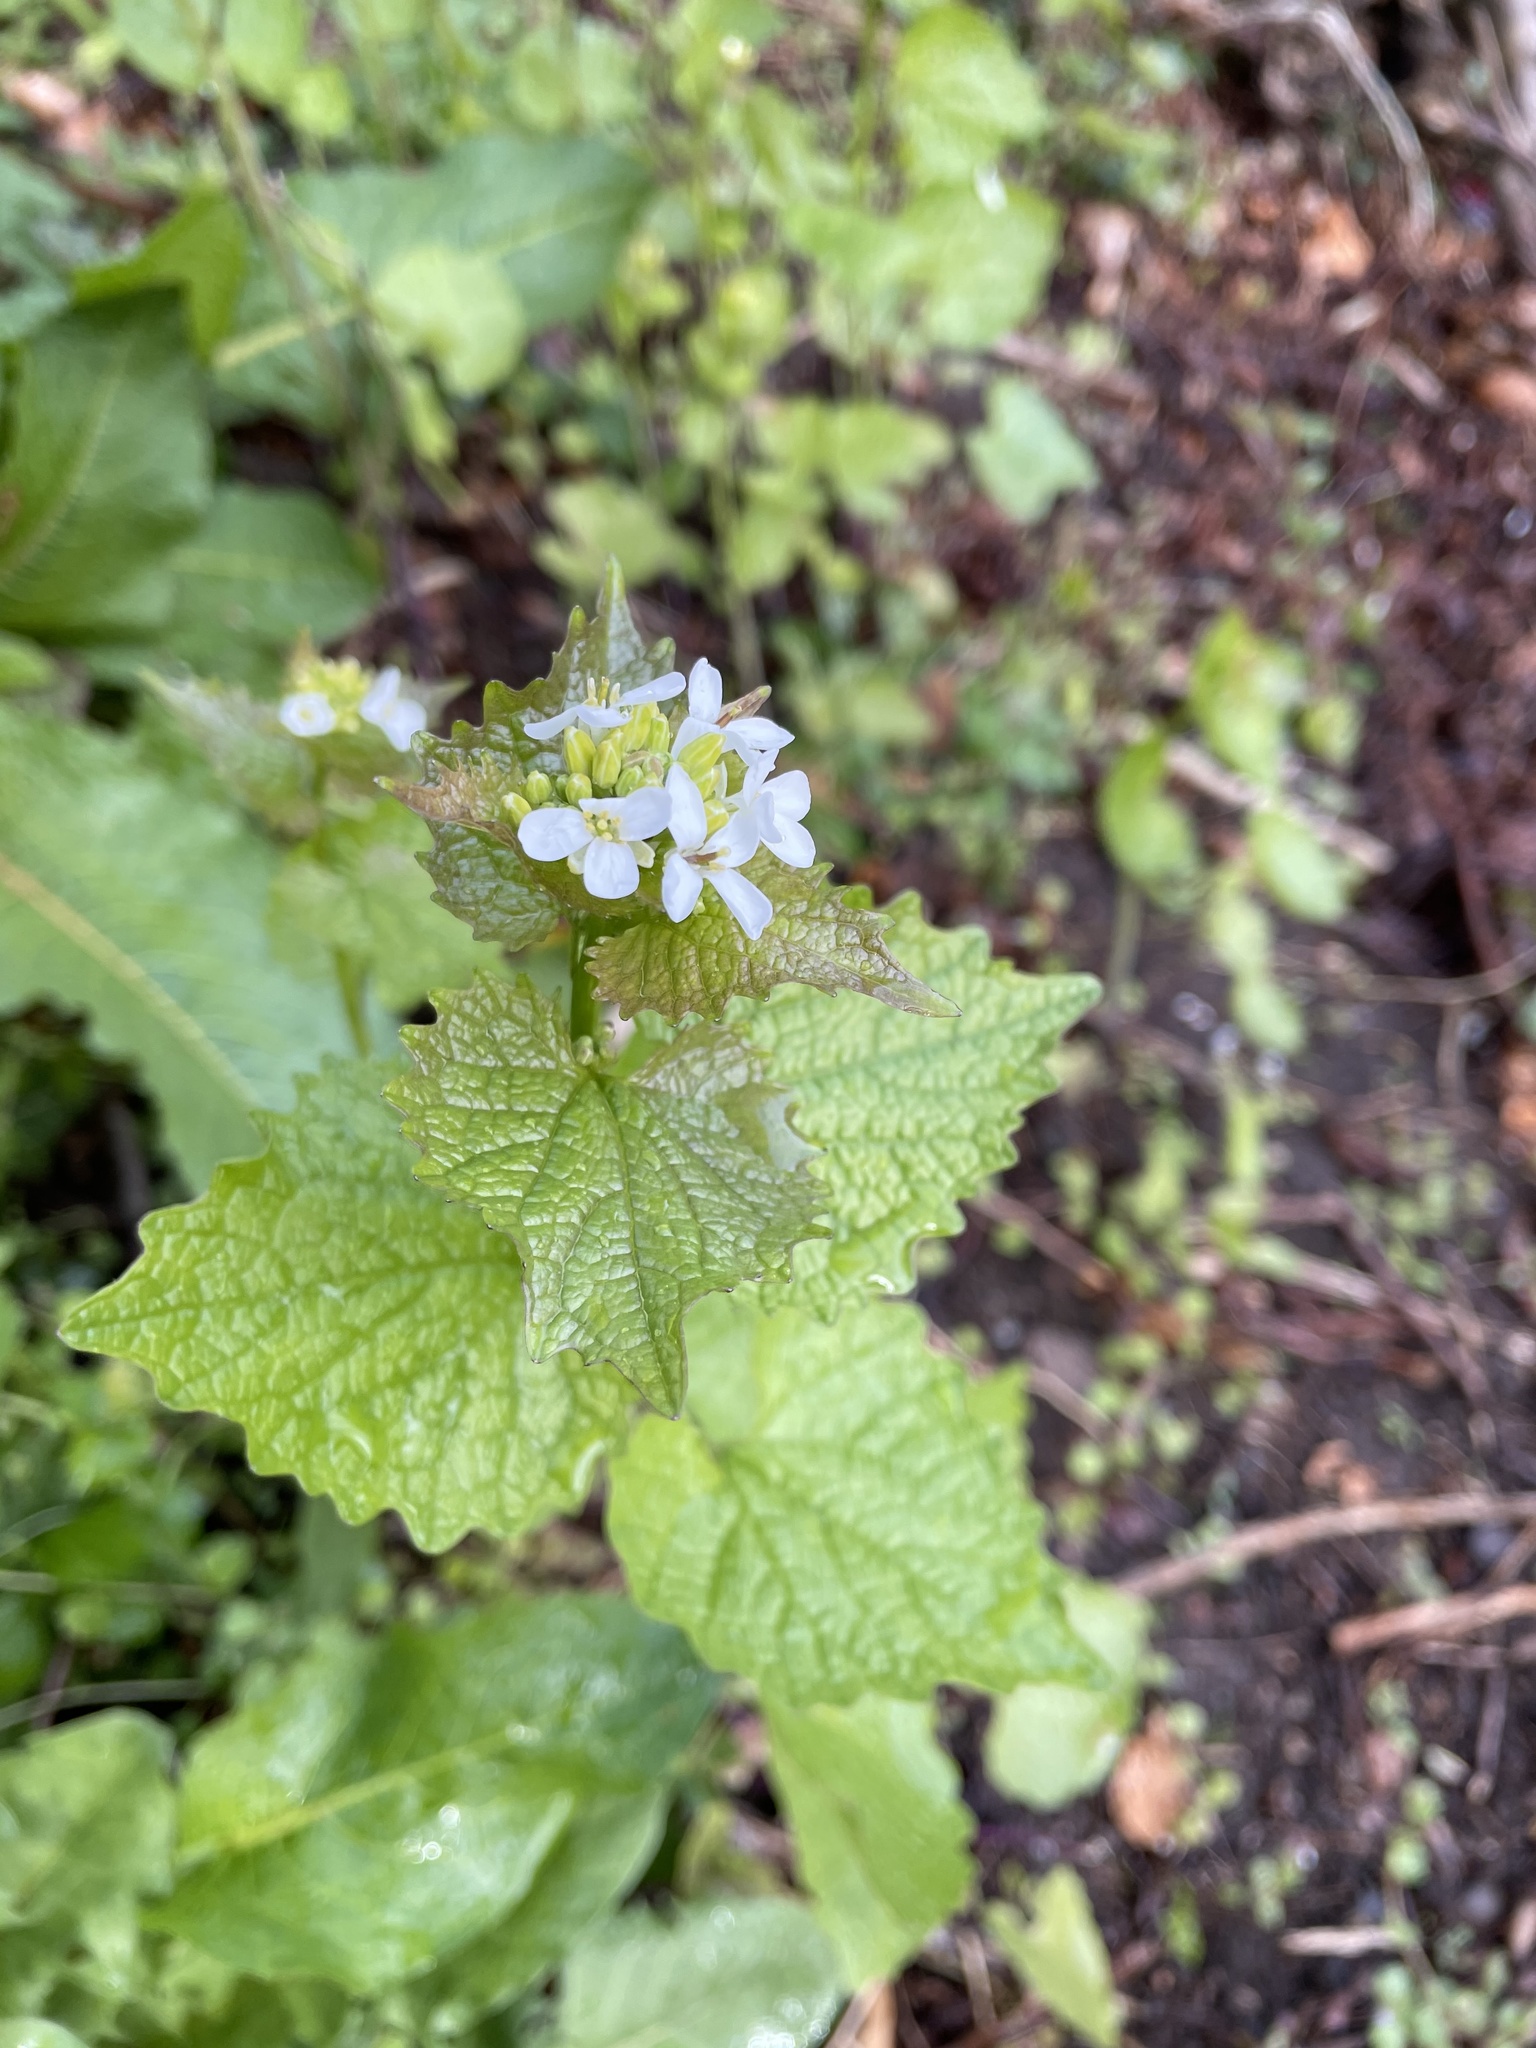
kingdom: Plantae
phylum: Tracheophyta
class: Magnoliopsida
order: Brassicales
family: Brassicaceae
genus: Alliaria
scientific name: Alliaria petiolata
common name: Garlic mustard
